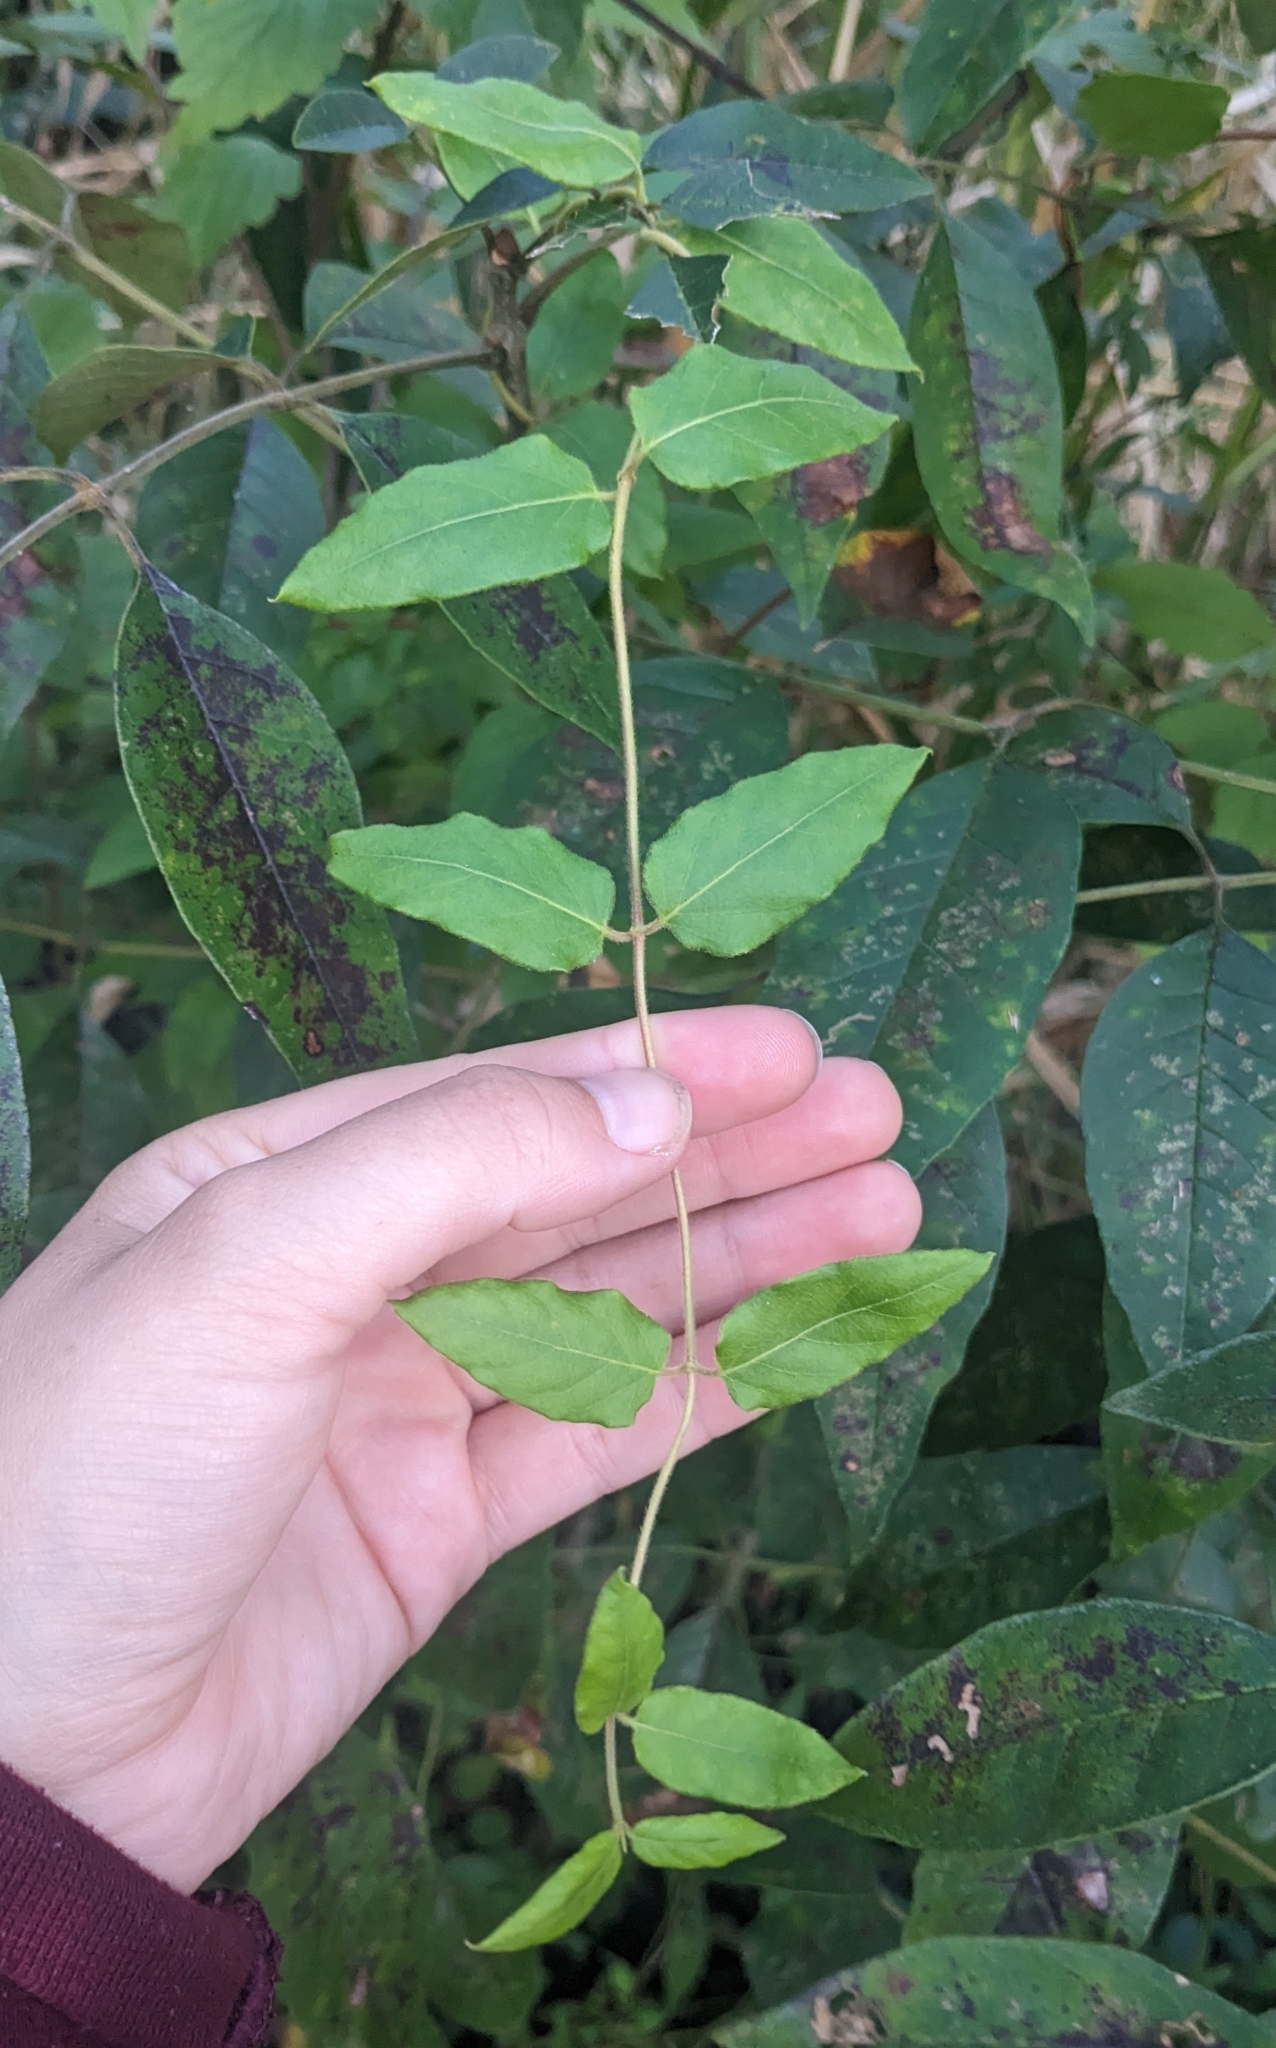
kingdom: Plantae
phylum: Tracheophyta
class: Magnoliopsida
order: Dipsacales
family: Caprifoliaceae
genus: Lonicera
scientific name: Lonicera japonica
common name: Japanese honeysuckle
